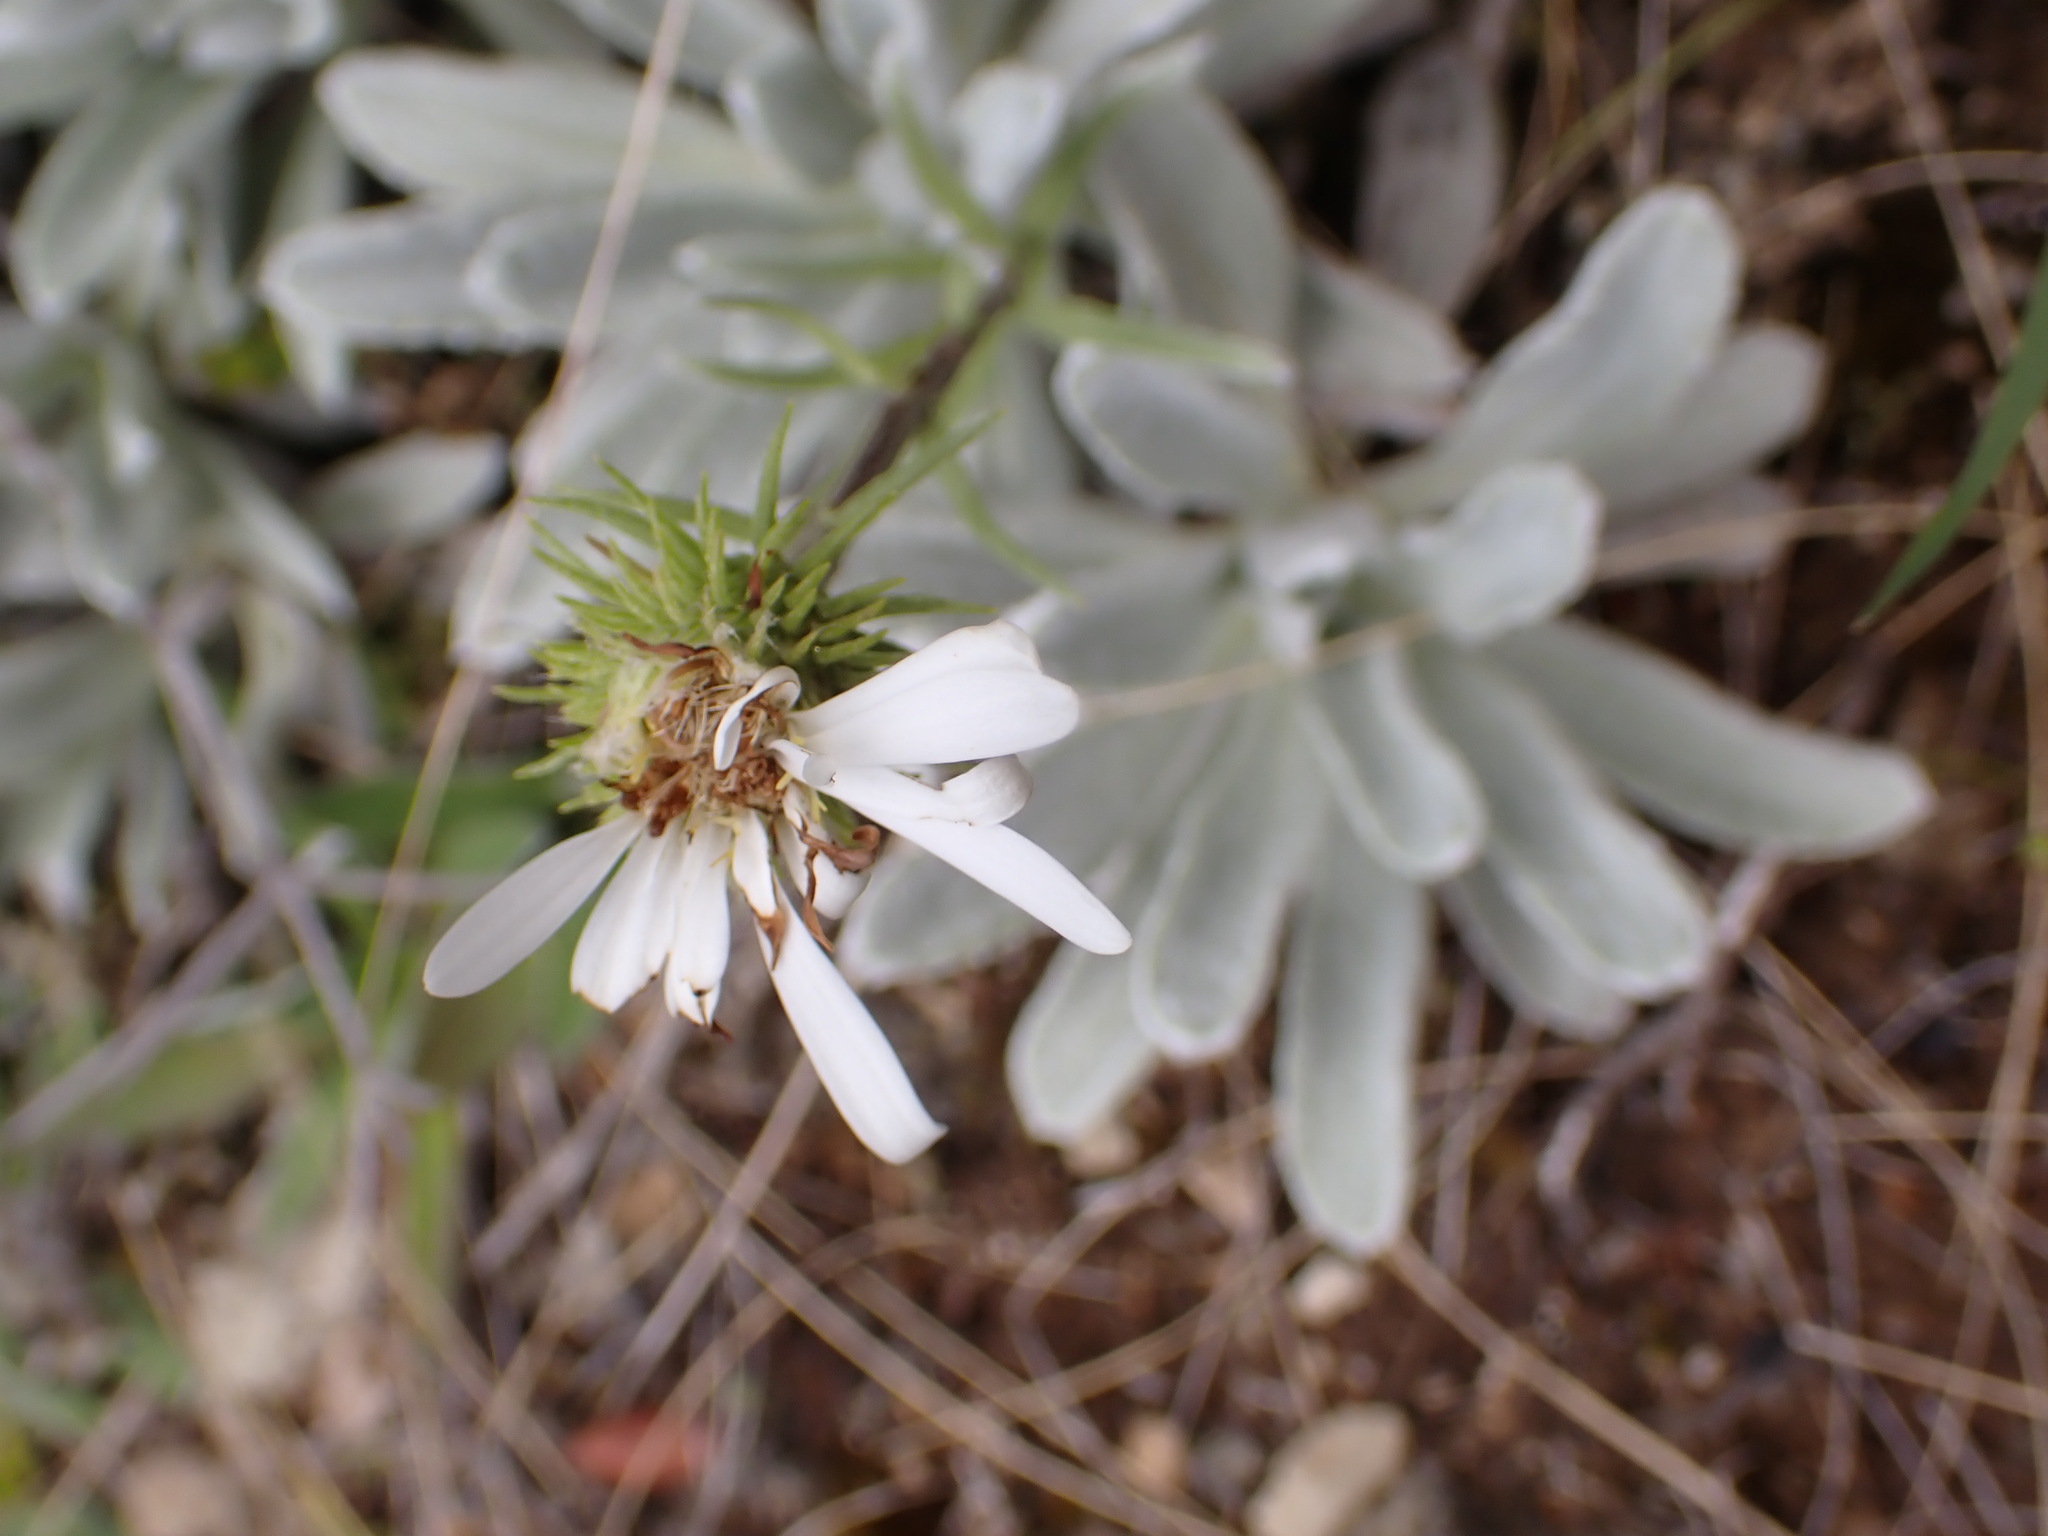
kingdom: Plantae
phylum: Tracheophyta
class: Magnoliopsida
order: Asterales
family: Asteraceae
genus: Celmisia
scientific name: Celmisia allanii
